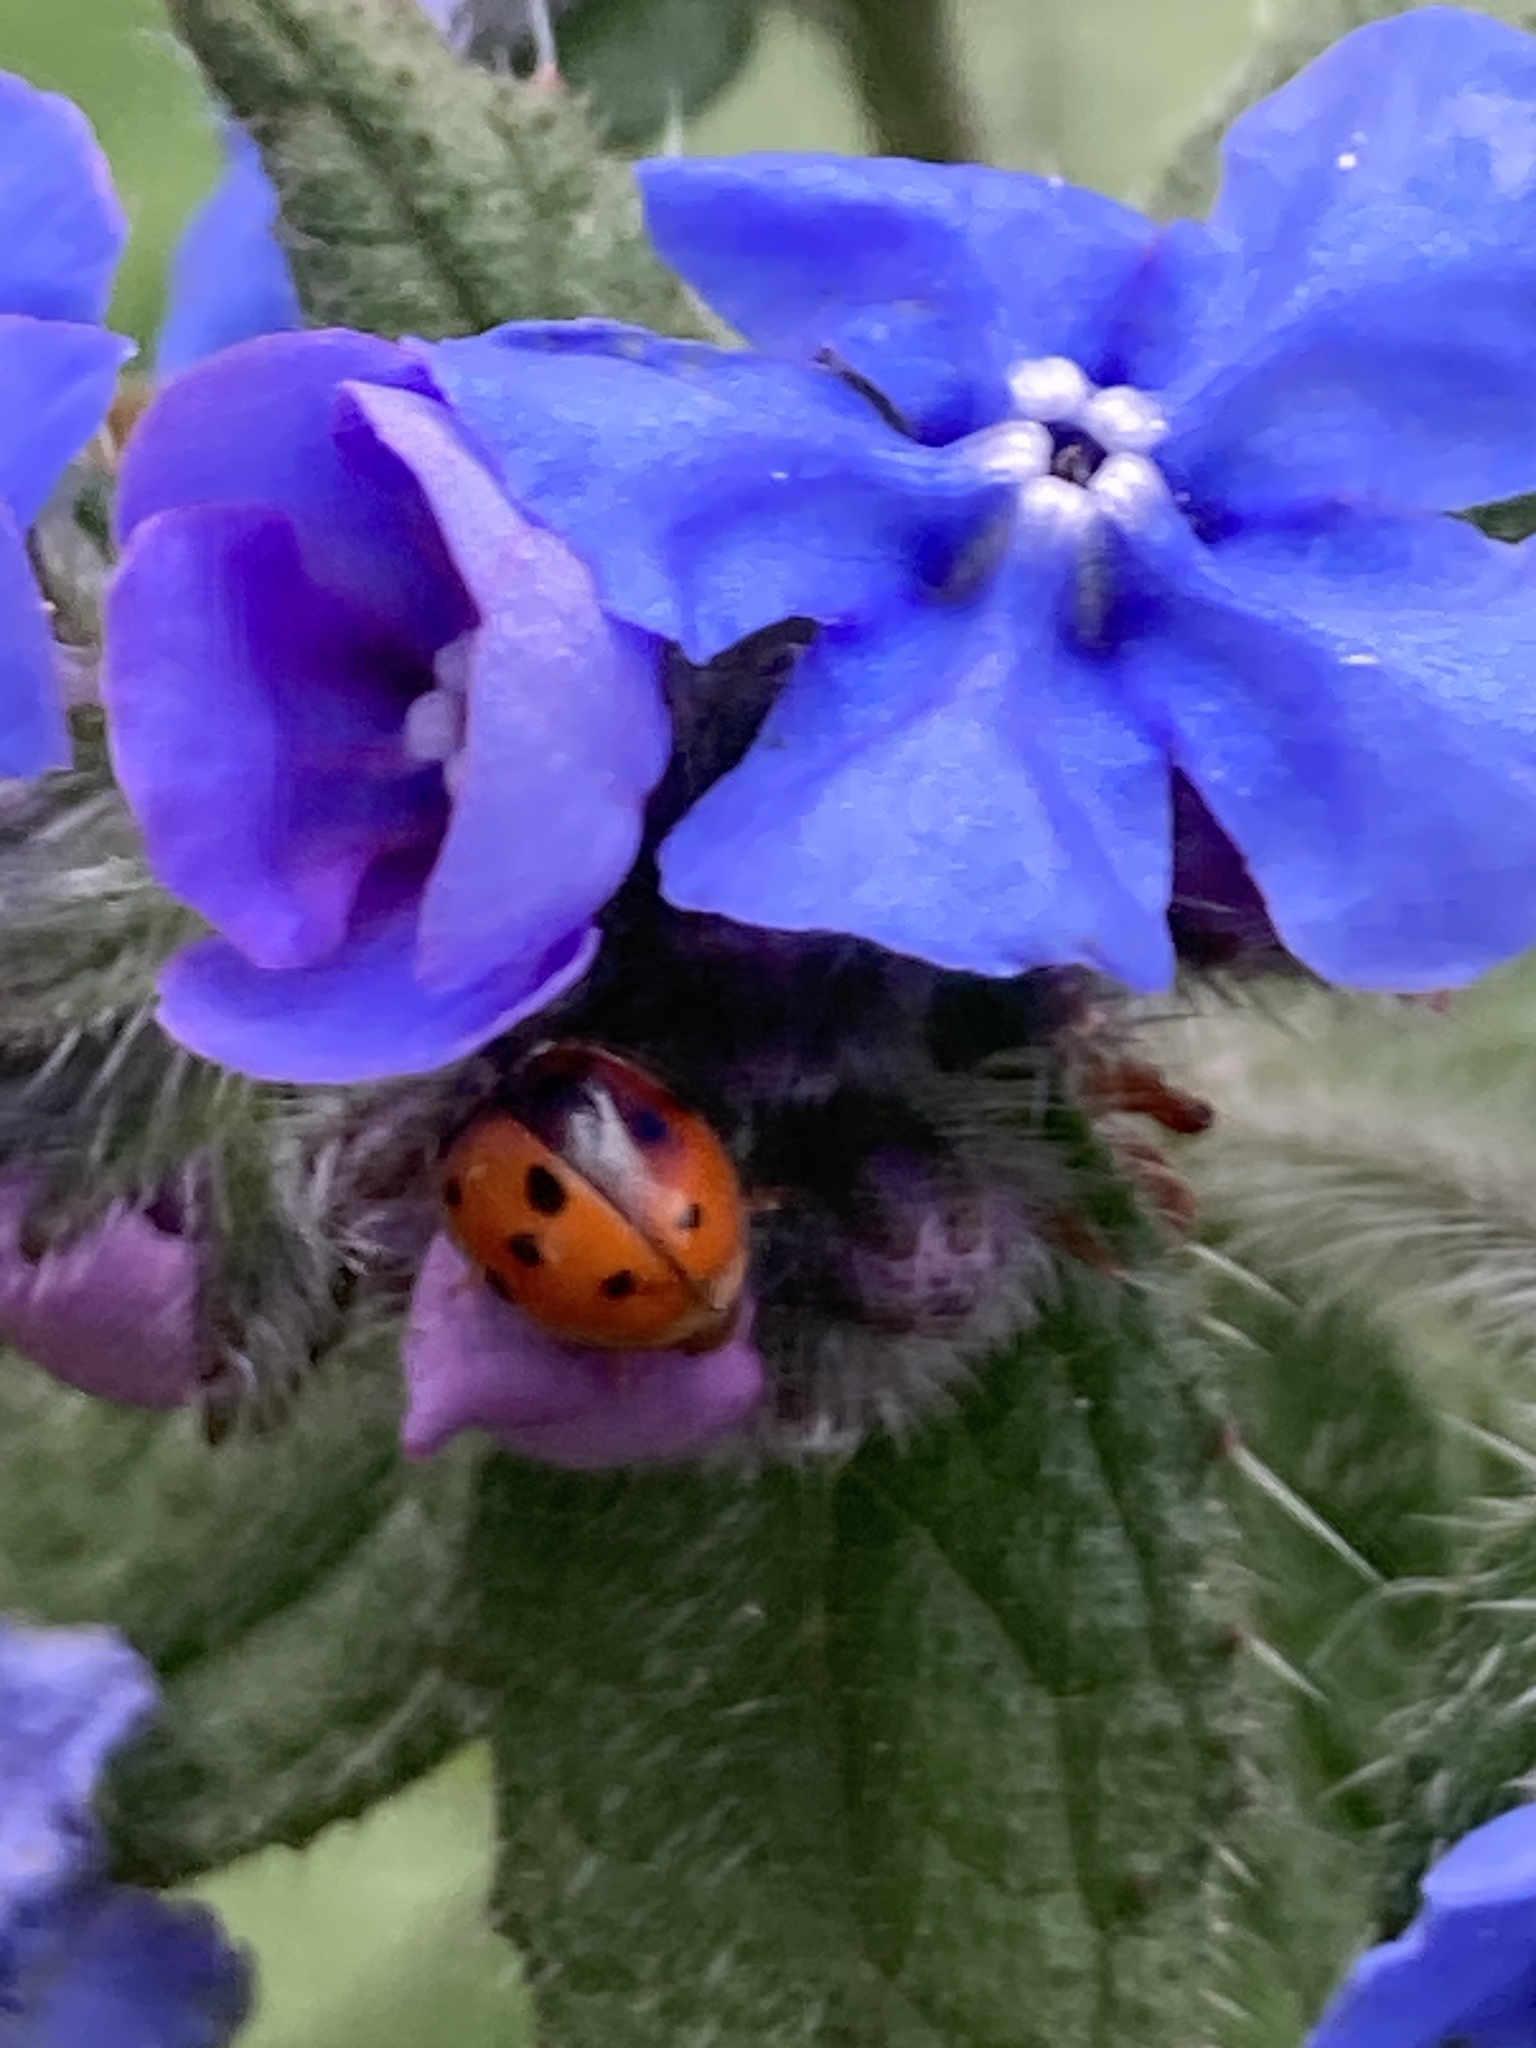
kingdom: Animalia
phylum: Arthropoda
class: Insecta
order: Coleoptera
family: Coccinellidae
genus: Adalia
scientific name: Adalia decempunctata
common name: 10-spot ladybird
